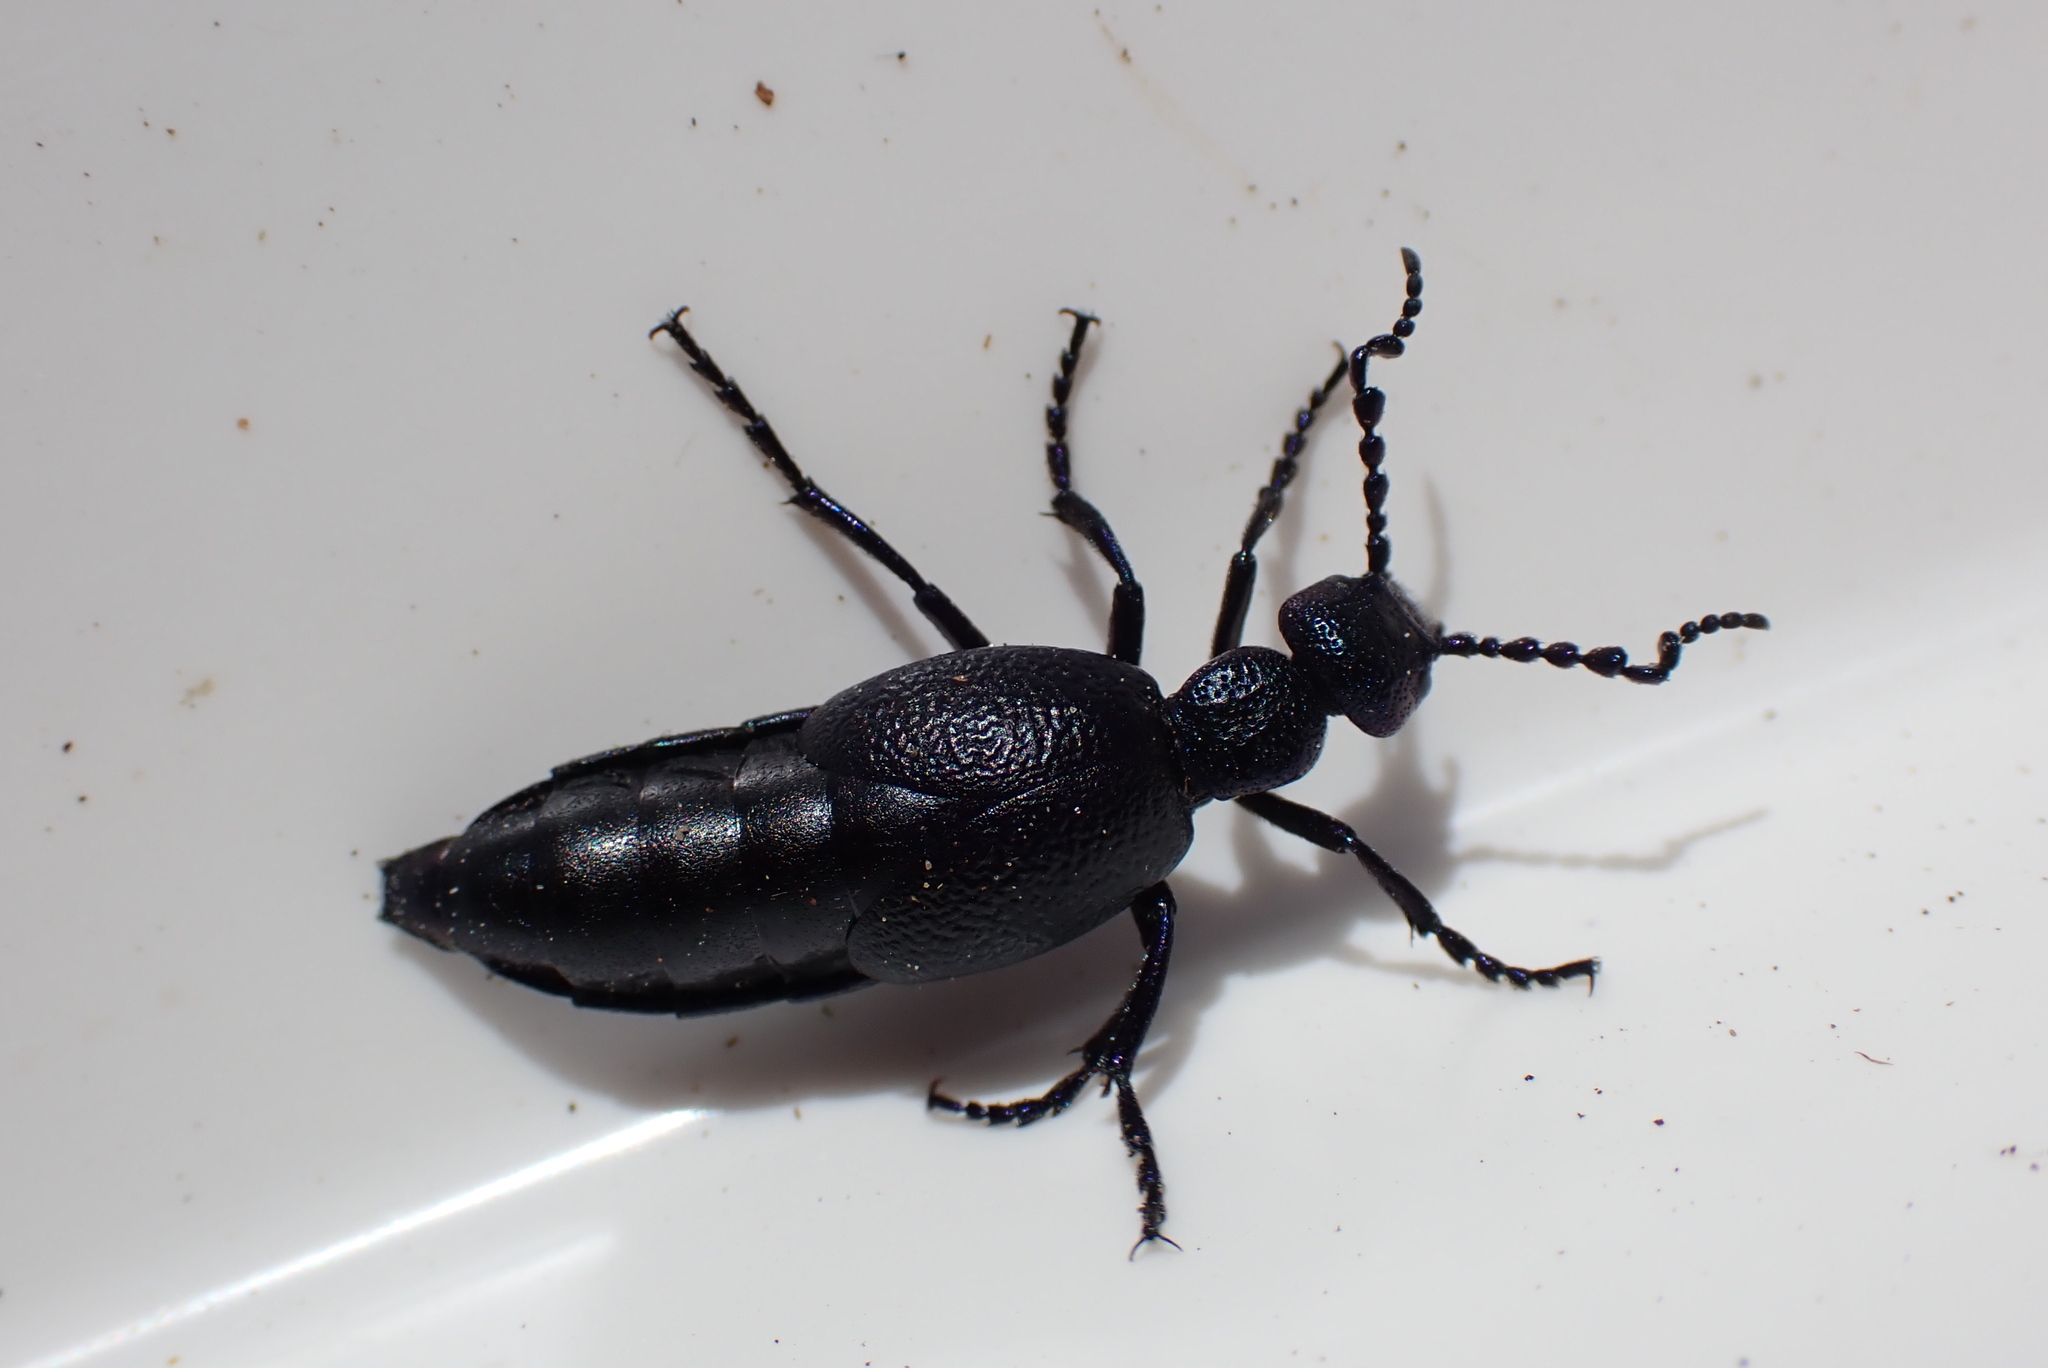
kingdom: Animalia
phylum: Arthropoda
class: Insecta
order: Coleoptera
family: Meloidae
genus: Meloe
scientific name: Meloe proscarabaeus
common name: Black oil-beetle
